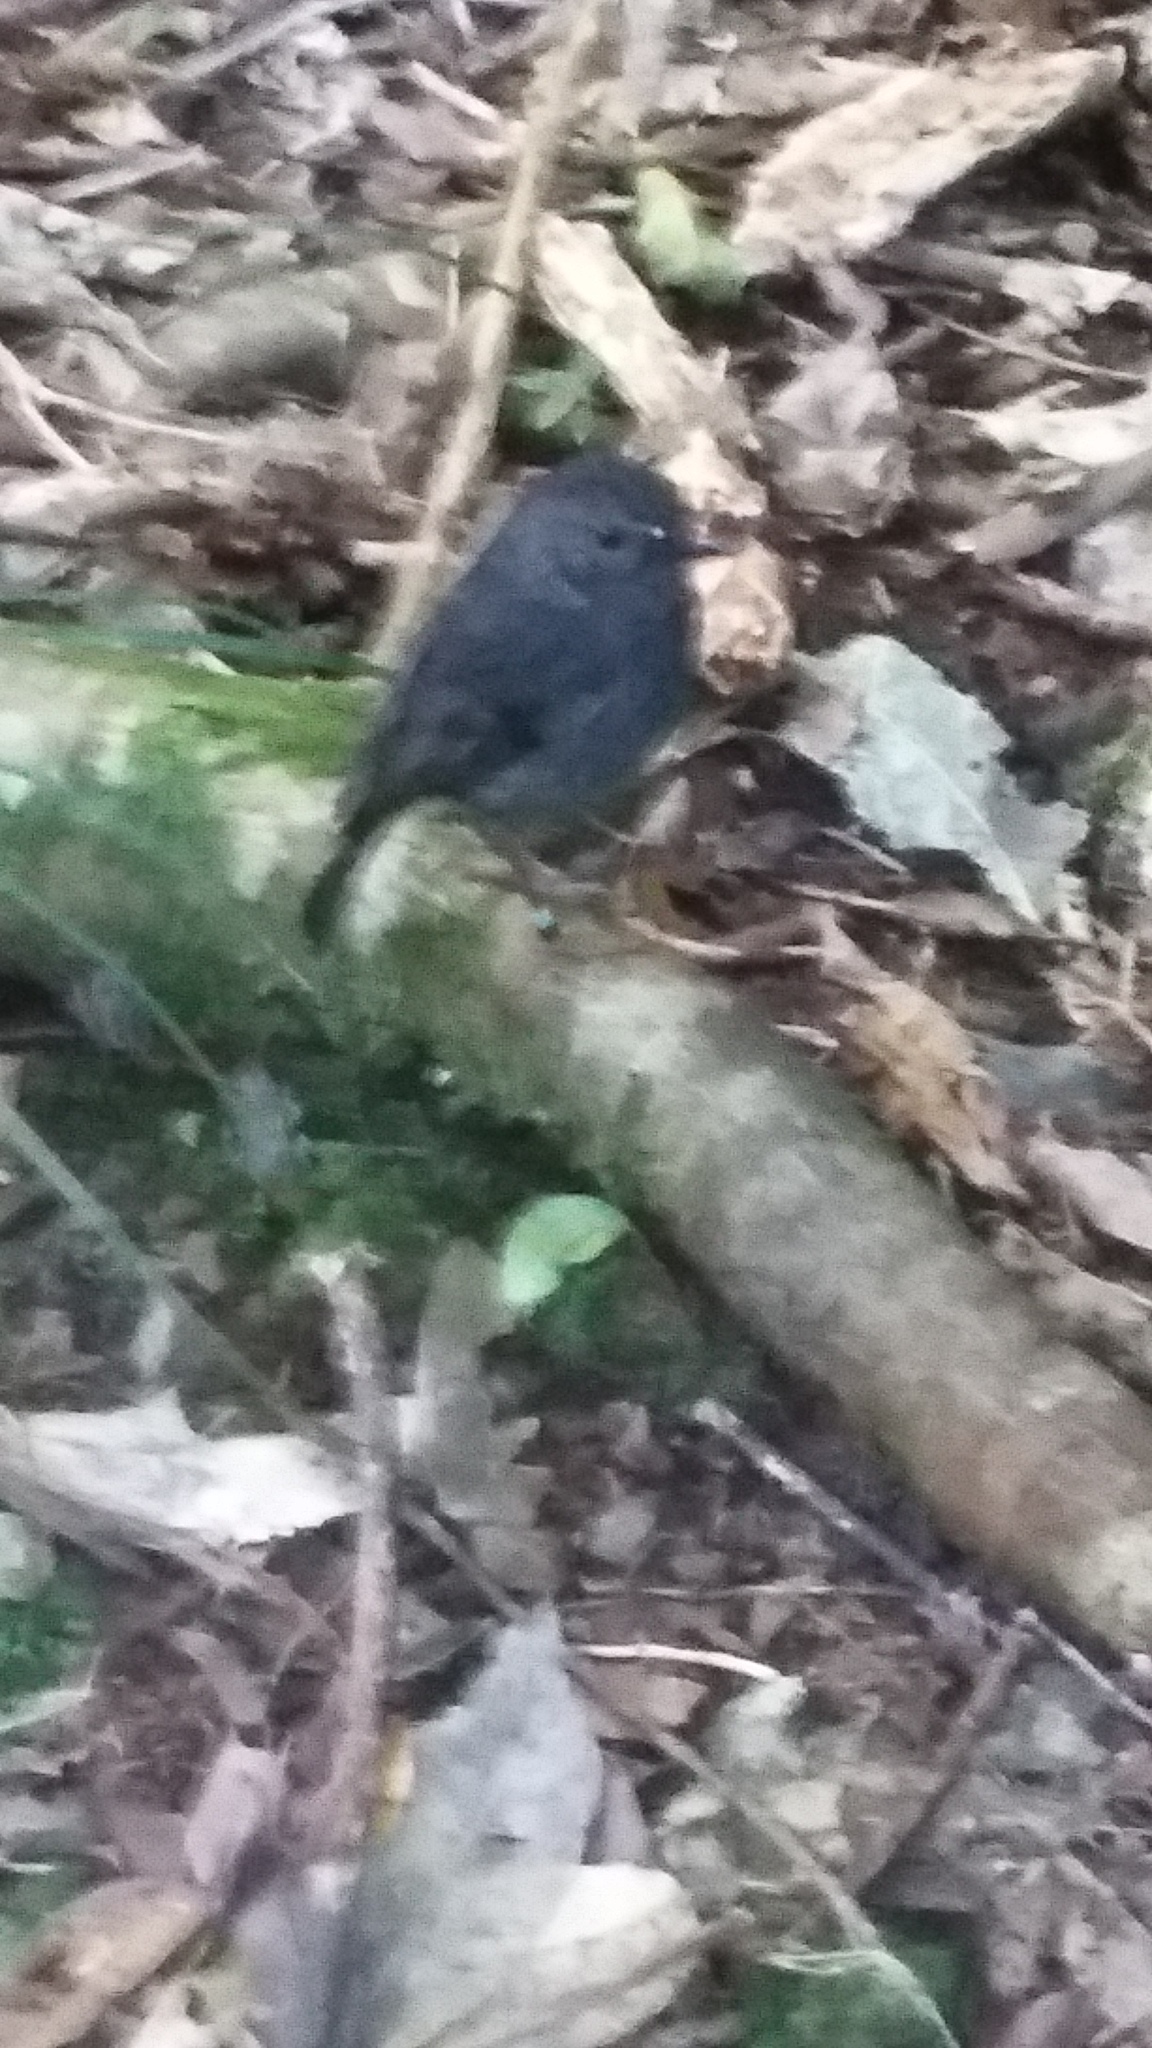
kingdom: Animalia
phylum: Chordata
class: Aves
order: Passeriformes
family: Petroicidae
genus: Petroica
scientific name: Petroica australis
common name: New zealand robin
